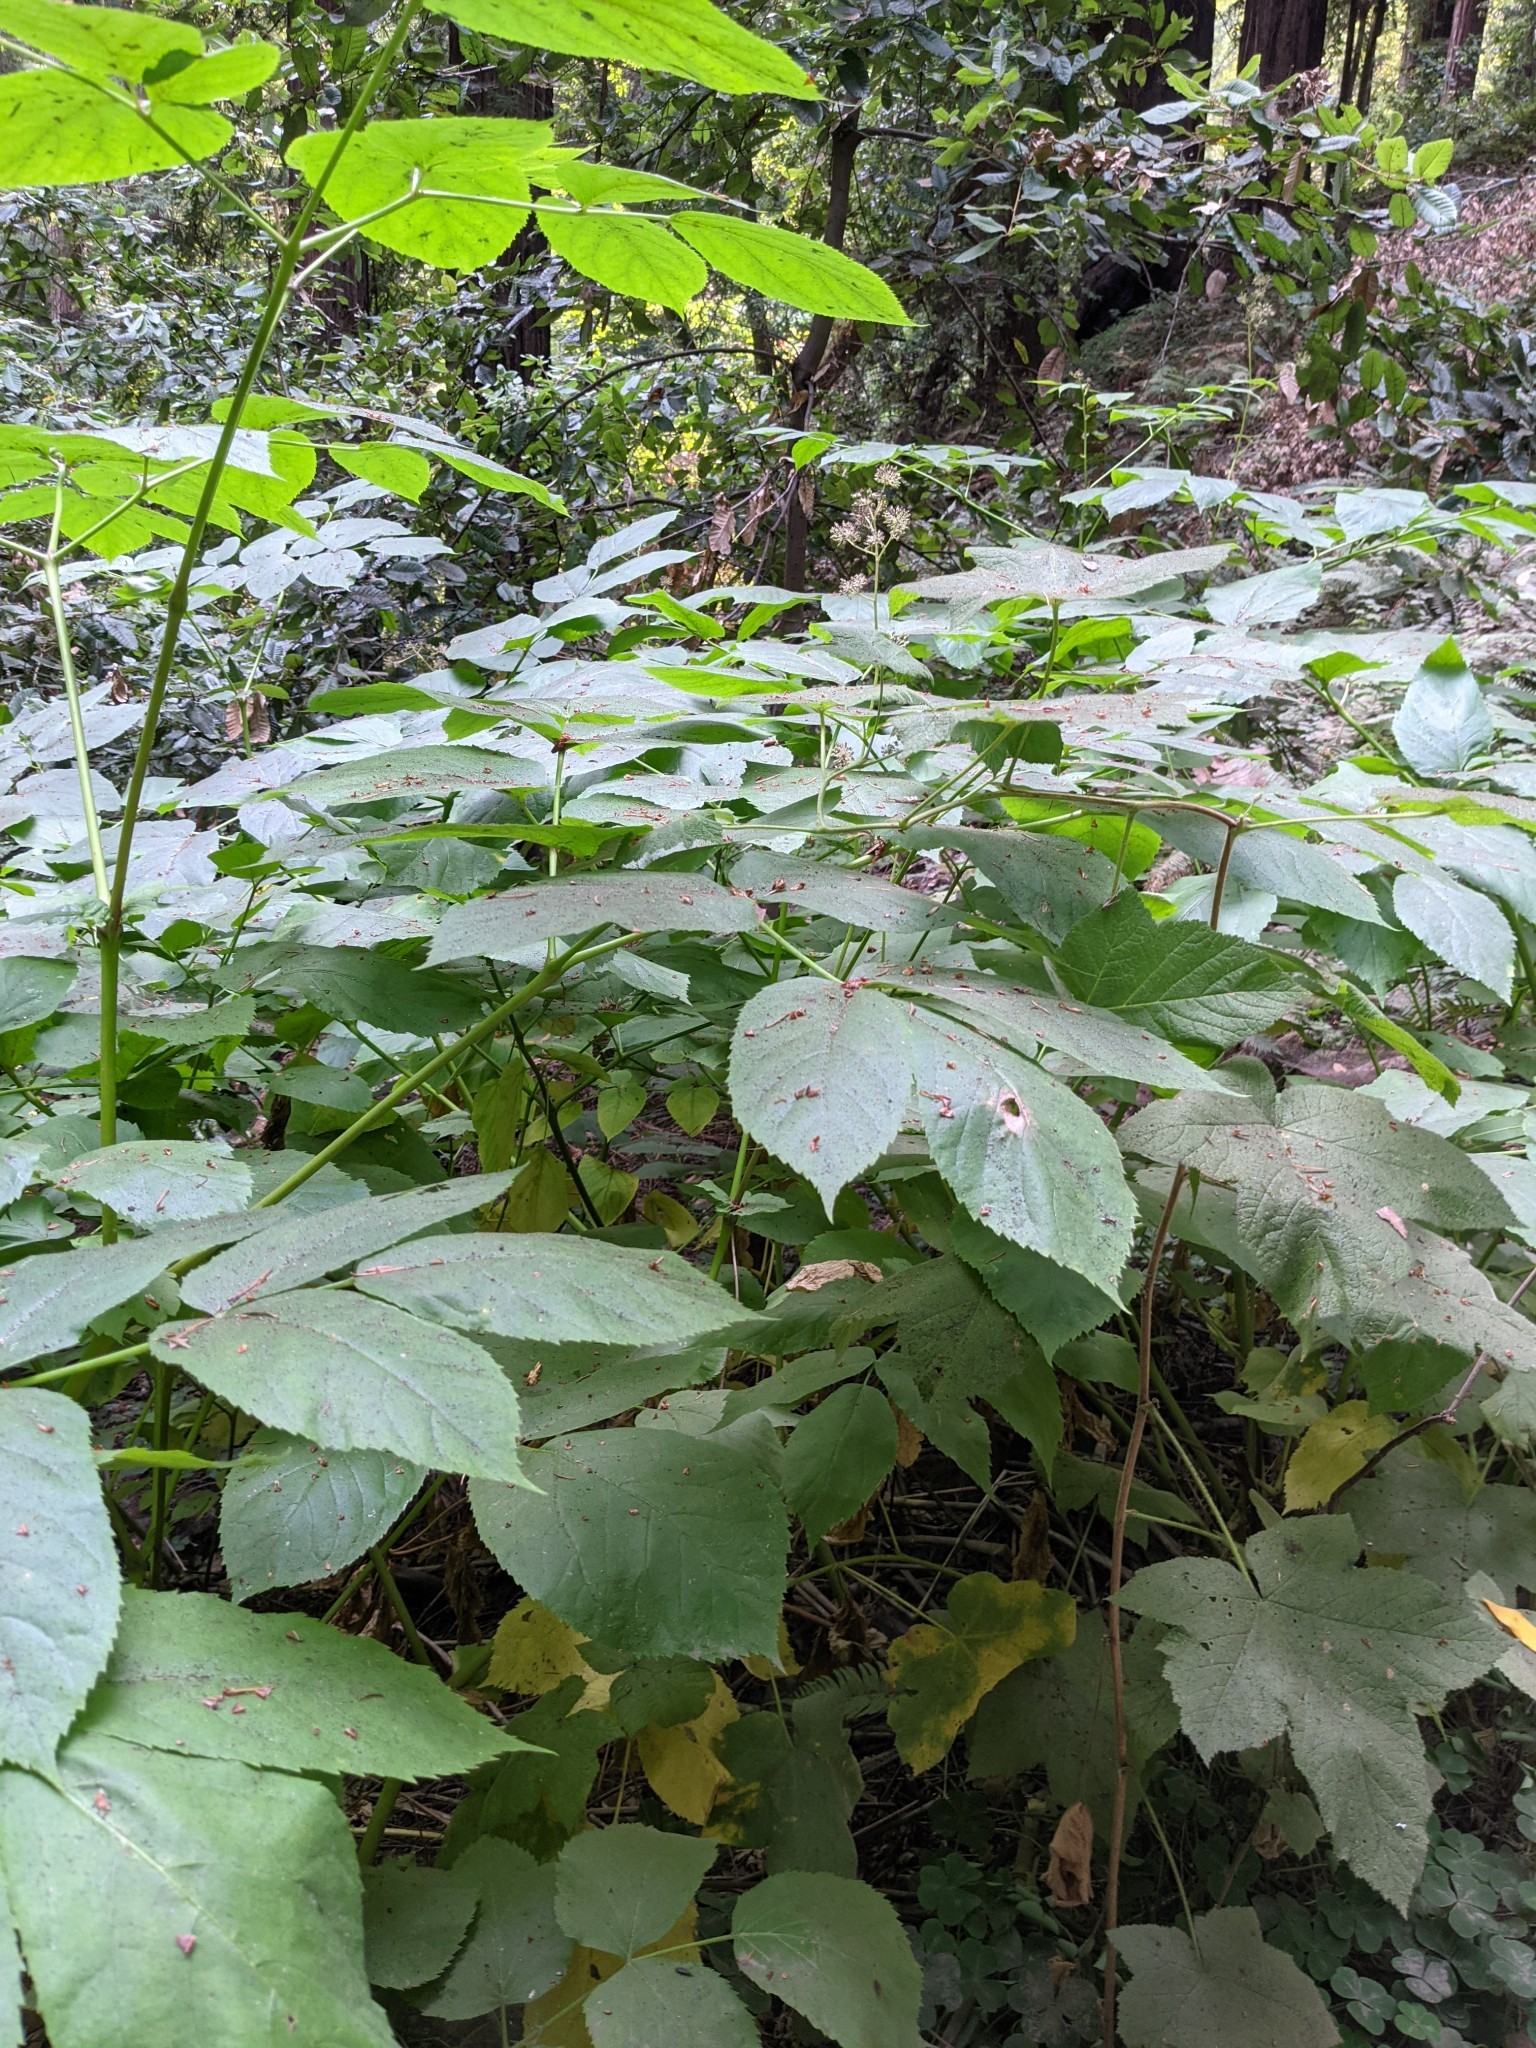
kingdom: Plantae
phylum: Tracheophyta
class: Magnoliopsida
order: Apiales
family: Araliaceae
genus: Aralia
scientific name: Aralia californica
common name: California-ginseng
